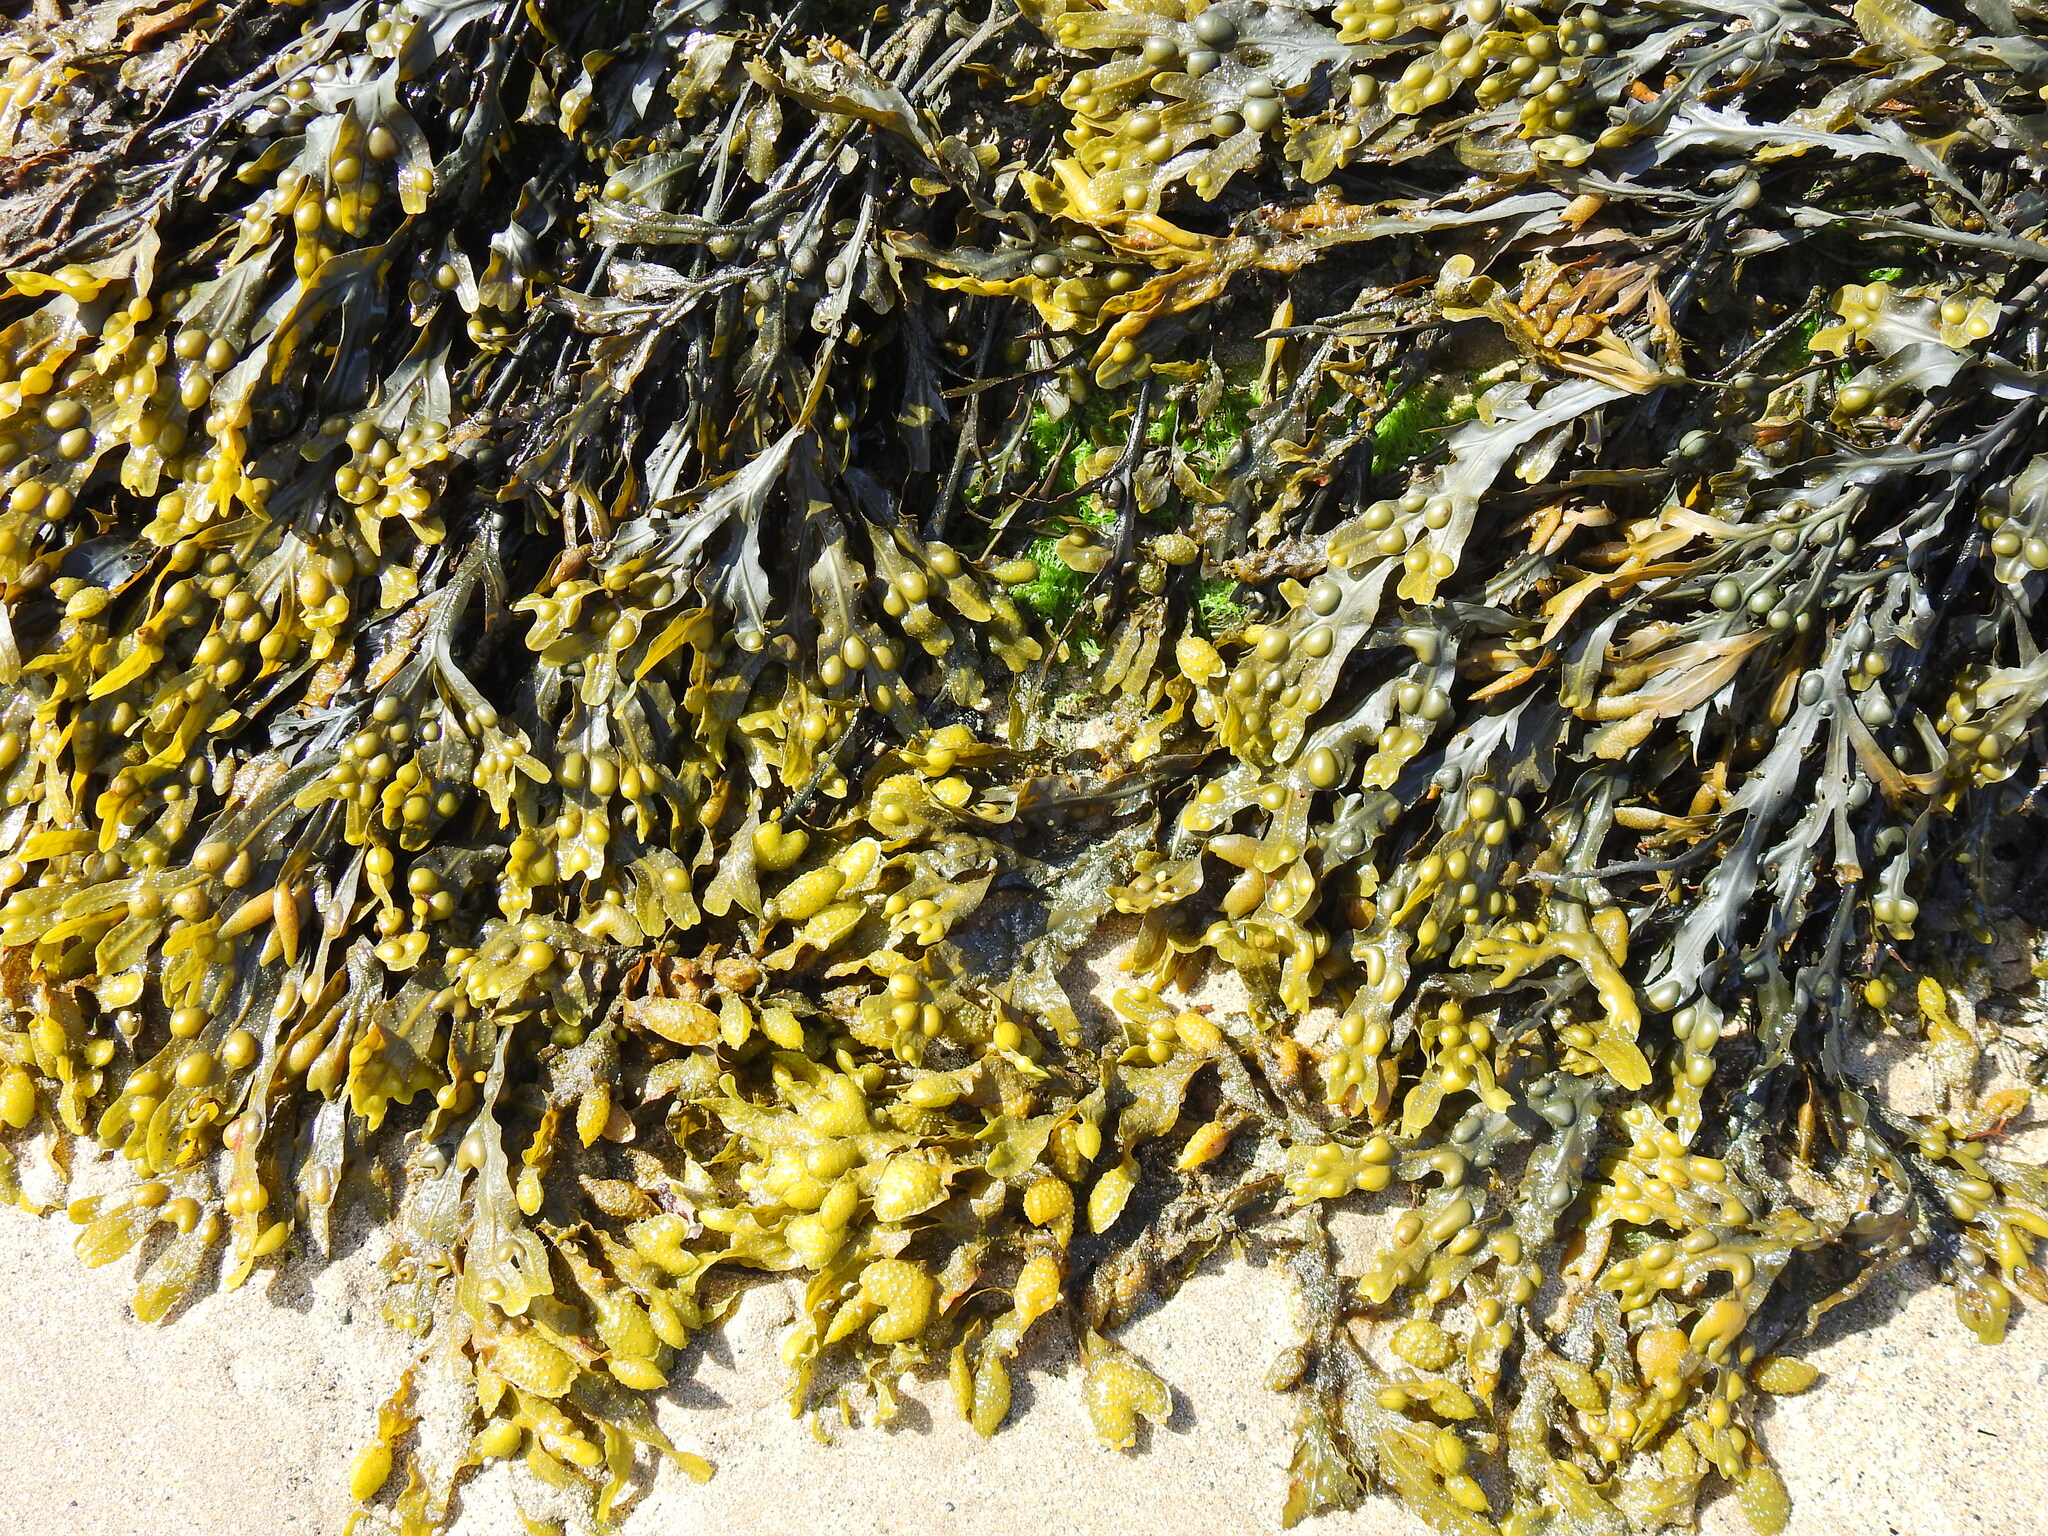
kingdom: Chromista
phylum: Ochrophyta
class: Phaeophyceae
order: Fucales
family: Fucaceae
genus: Fucus
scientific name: Fucus vesiculosus
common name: Bladder wrack
